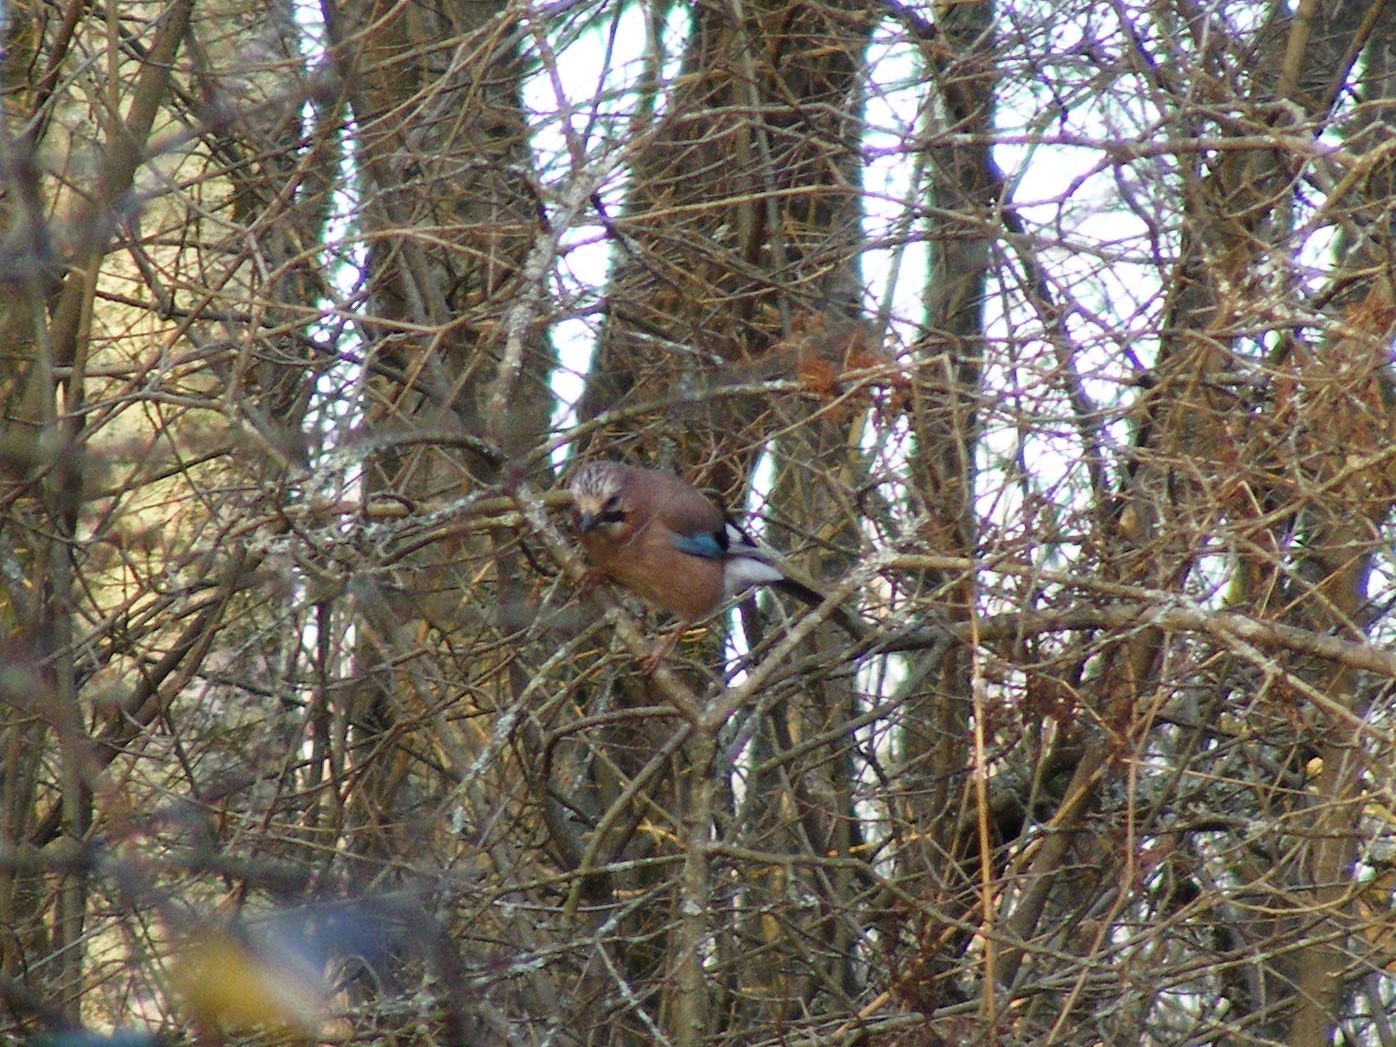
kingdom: Animalia
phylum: Chordata
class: Aves
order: Passeriformes
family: Corvidae
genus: Garrulus
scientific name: Garrulus glandarius
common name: Eurasian jay
